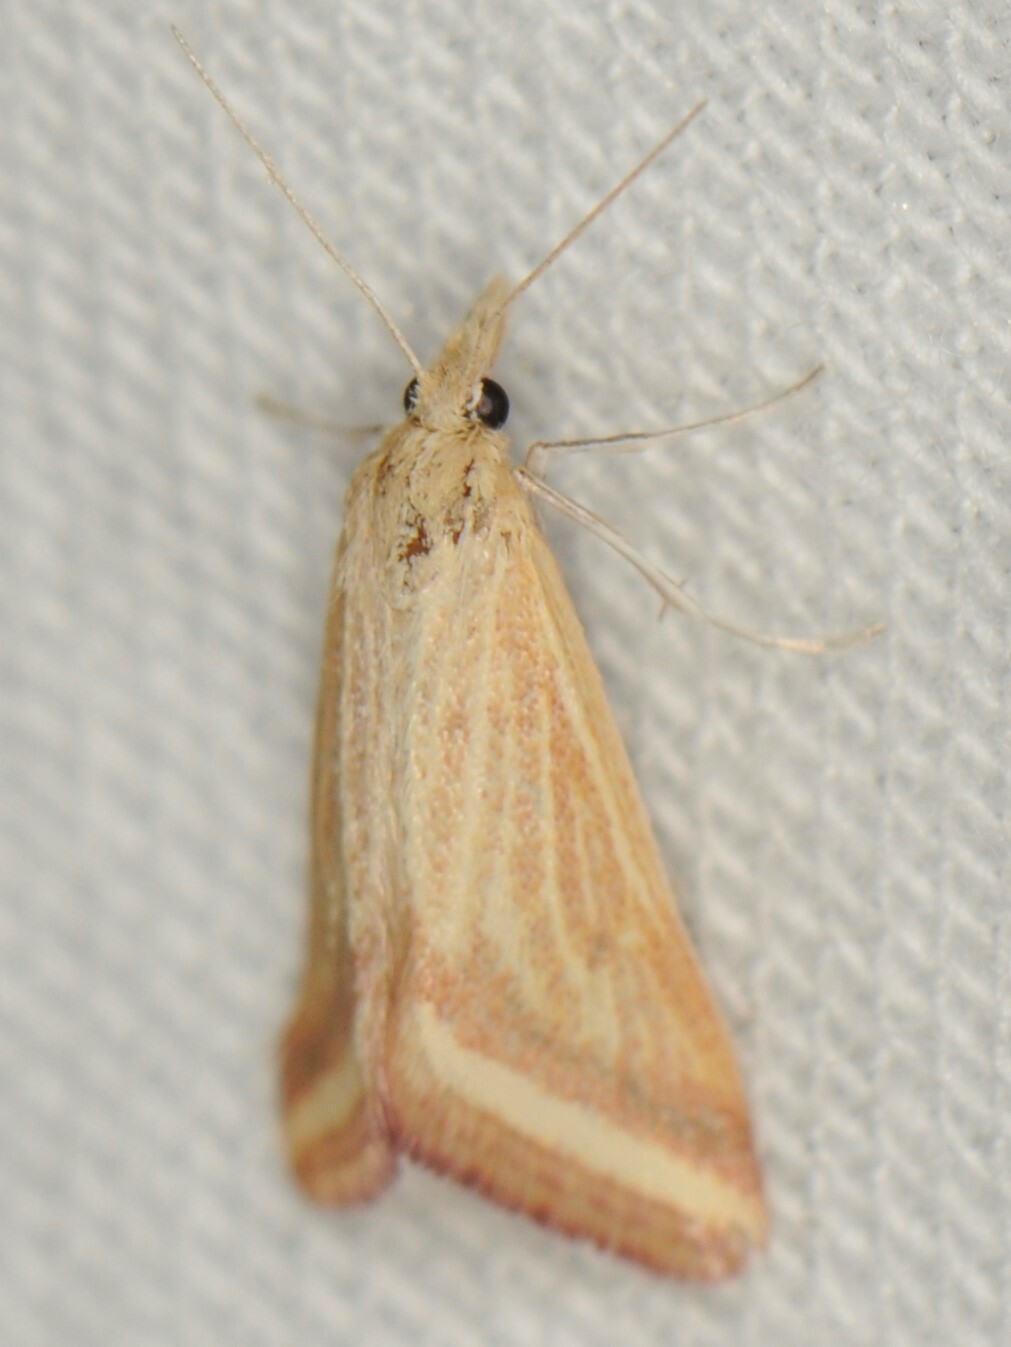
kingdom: Animalia
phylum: Arthropoda
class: Insecta
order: Lepidoptera
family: Crambidae
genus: Microtheoris
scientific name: Microtheoris ophionalis
